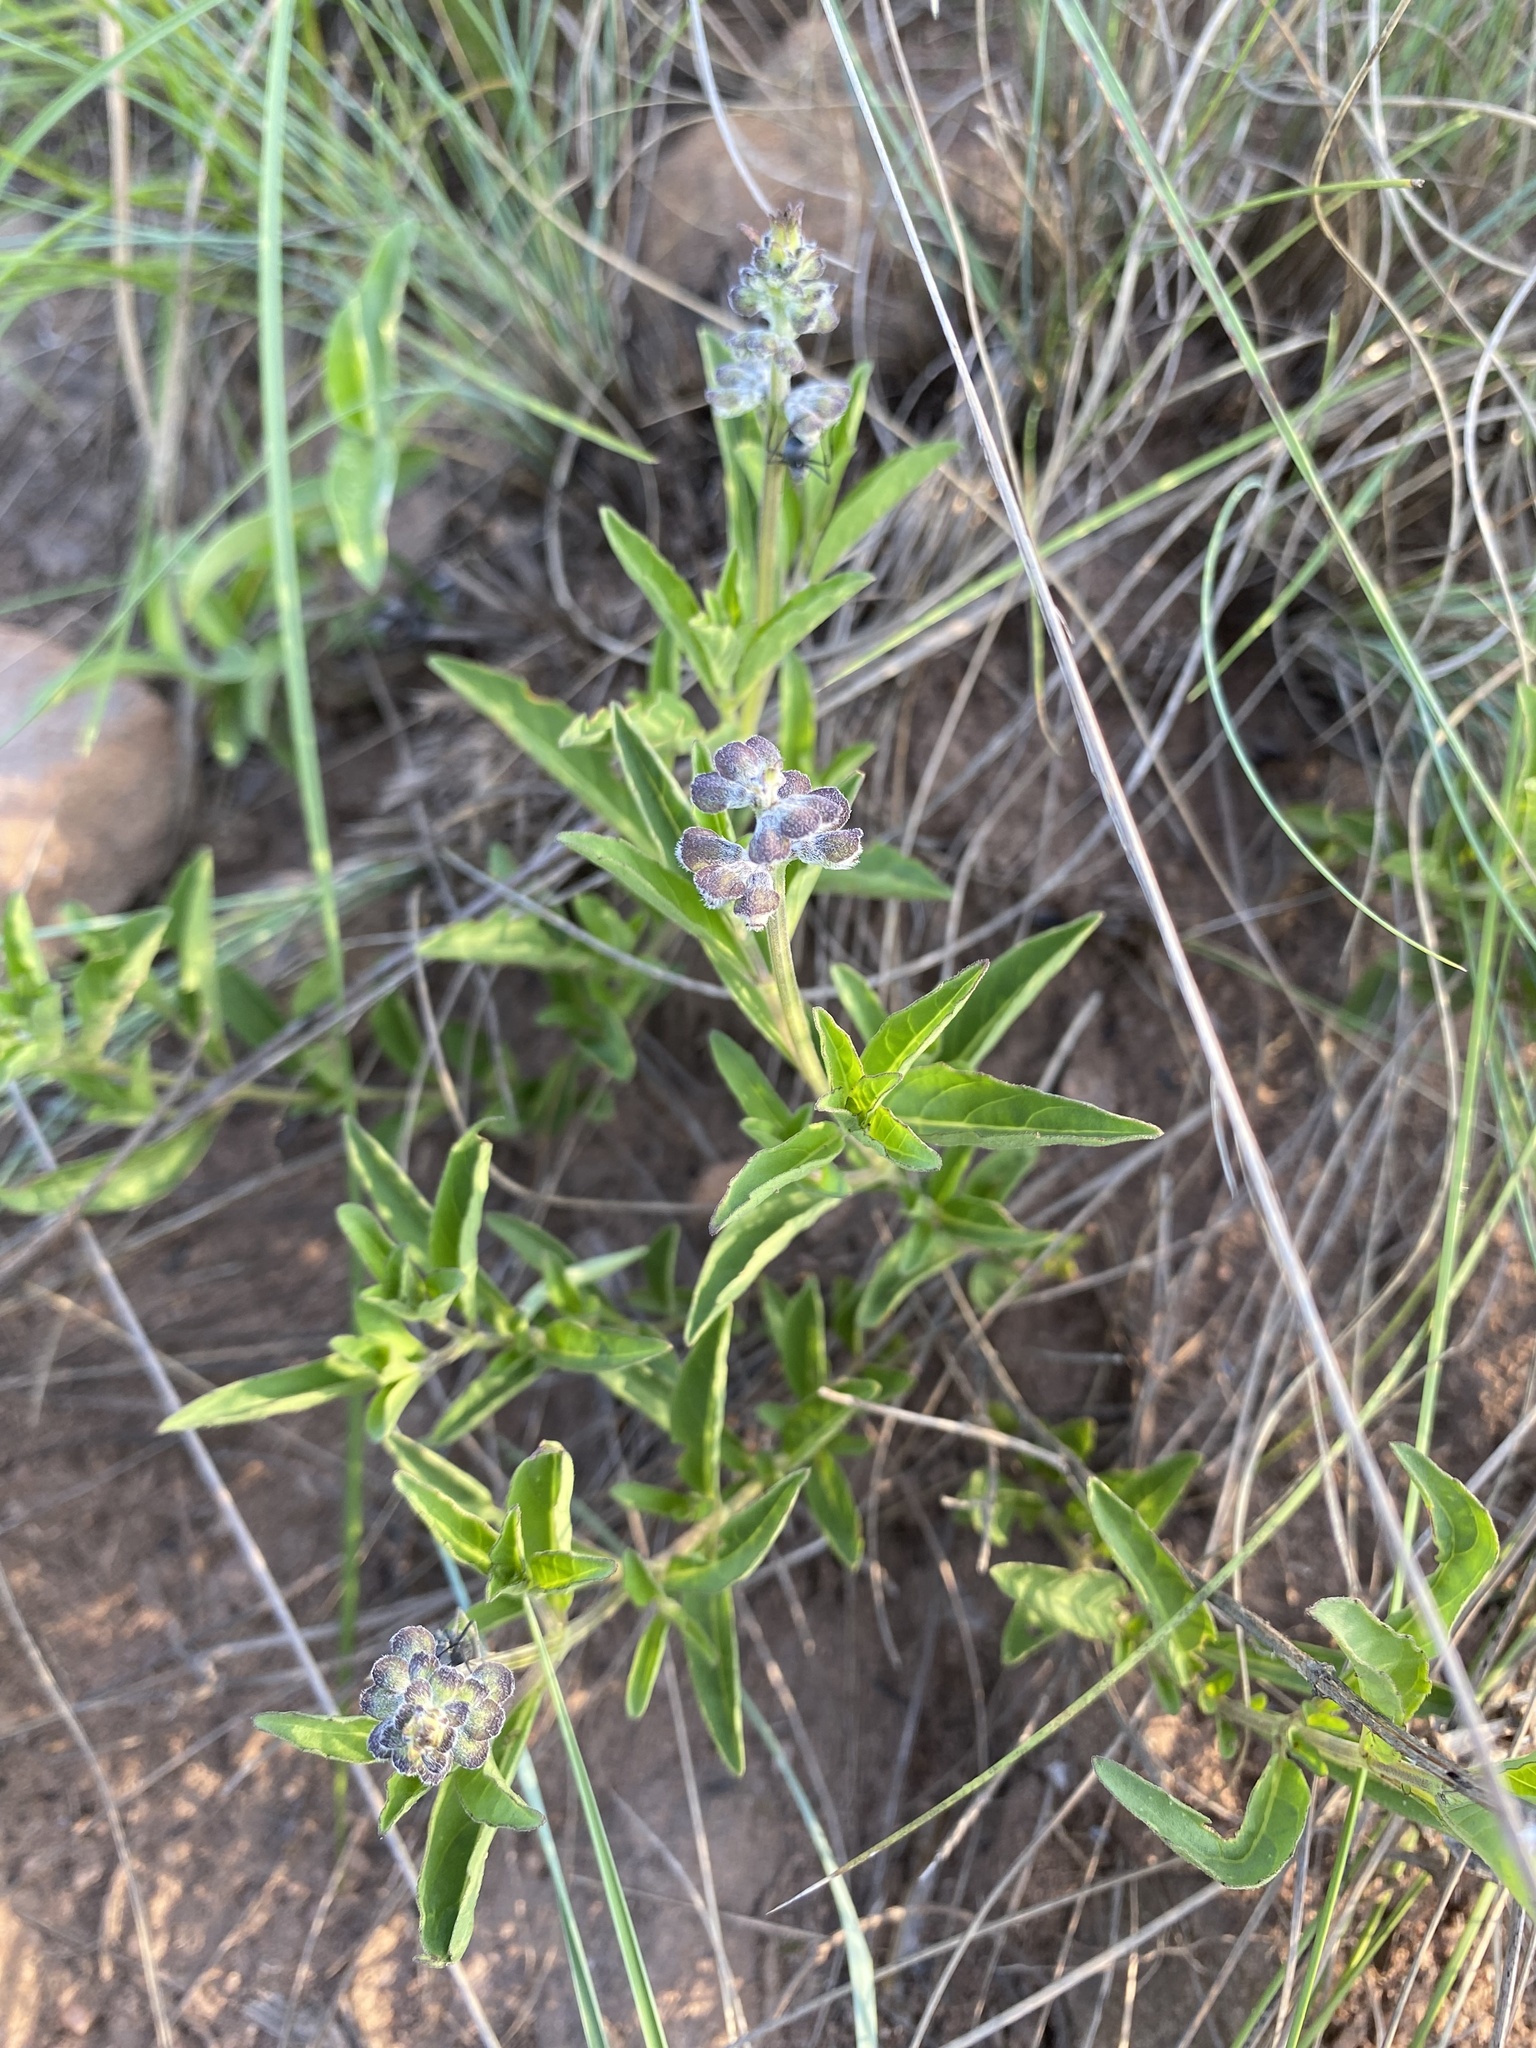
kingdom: Plantae
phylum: Tracheophyta
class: Magnoliopsida
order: Gentianales
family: Rubiaceae
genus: Pentanisia
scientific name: Pentanisia prunelloides
